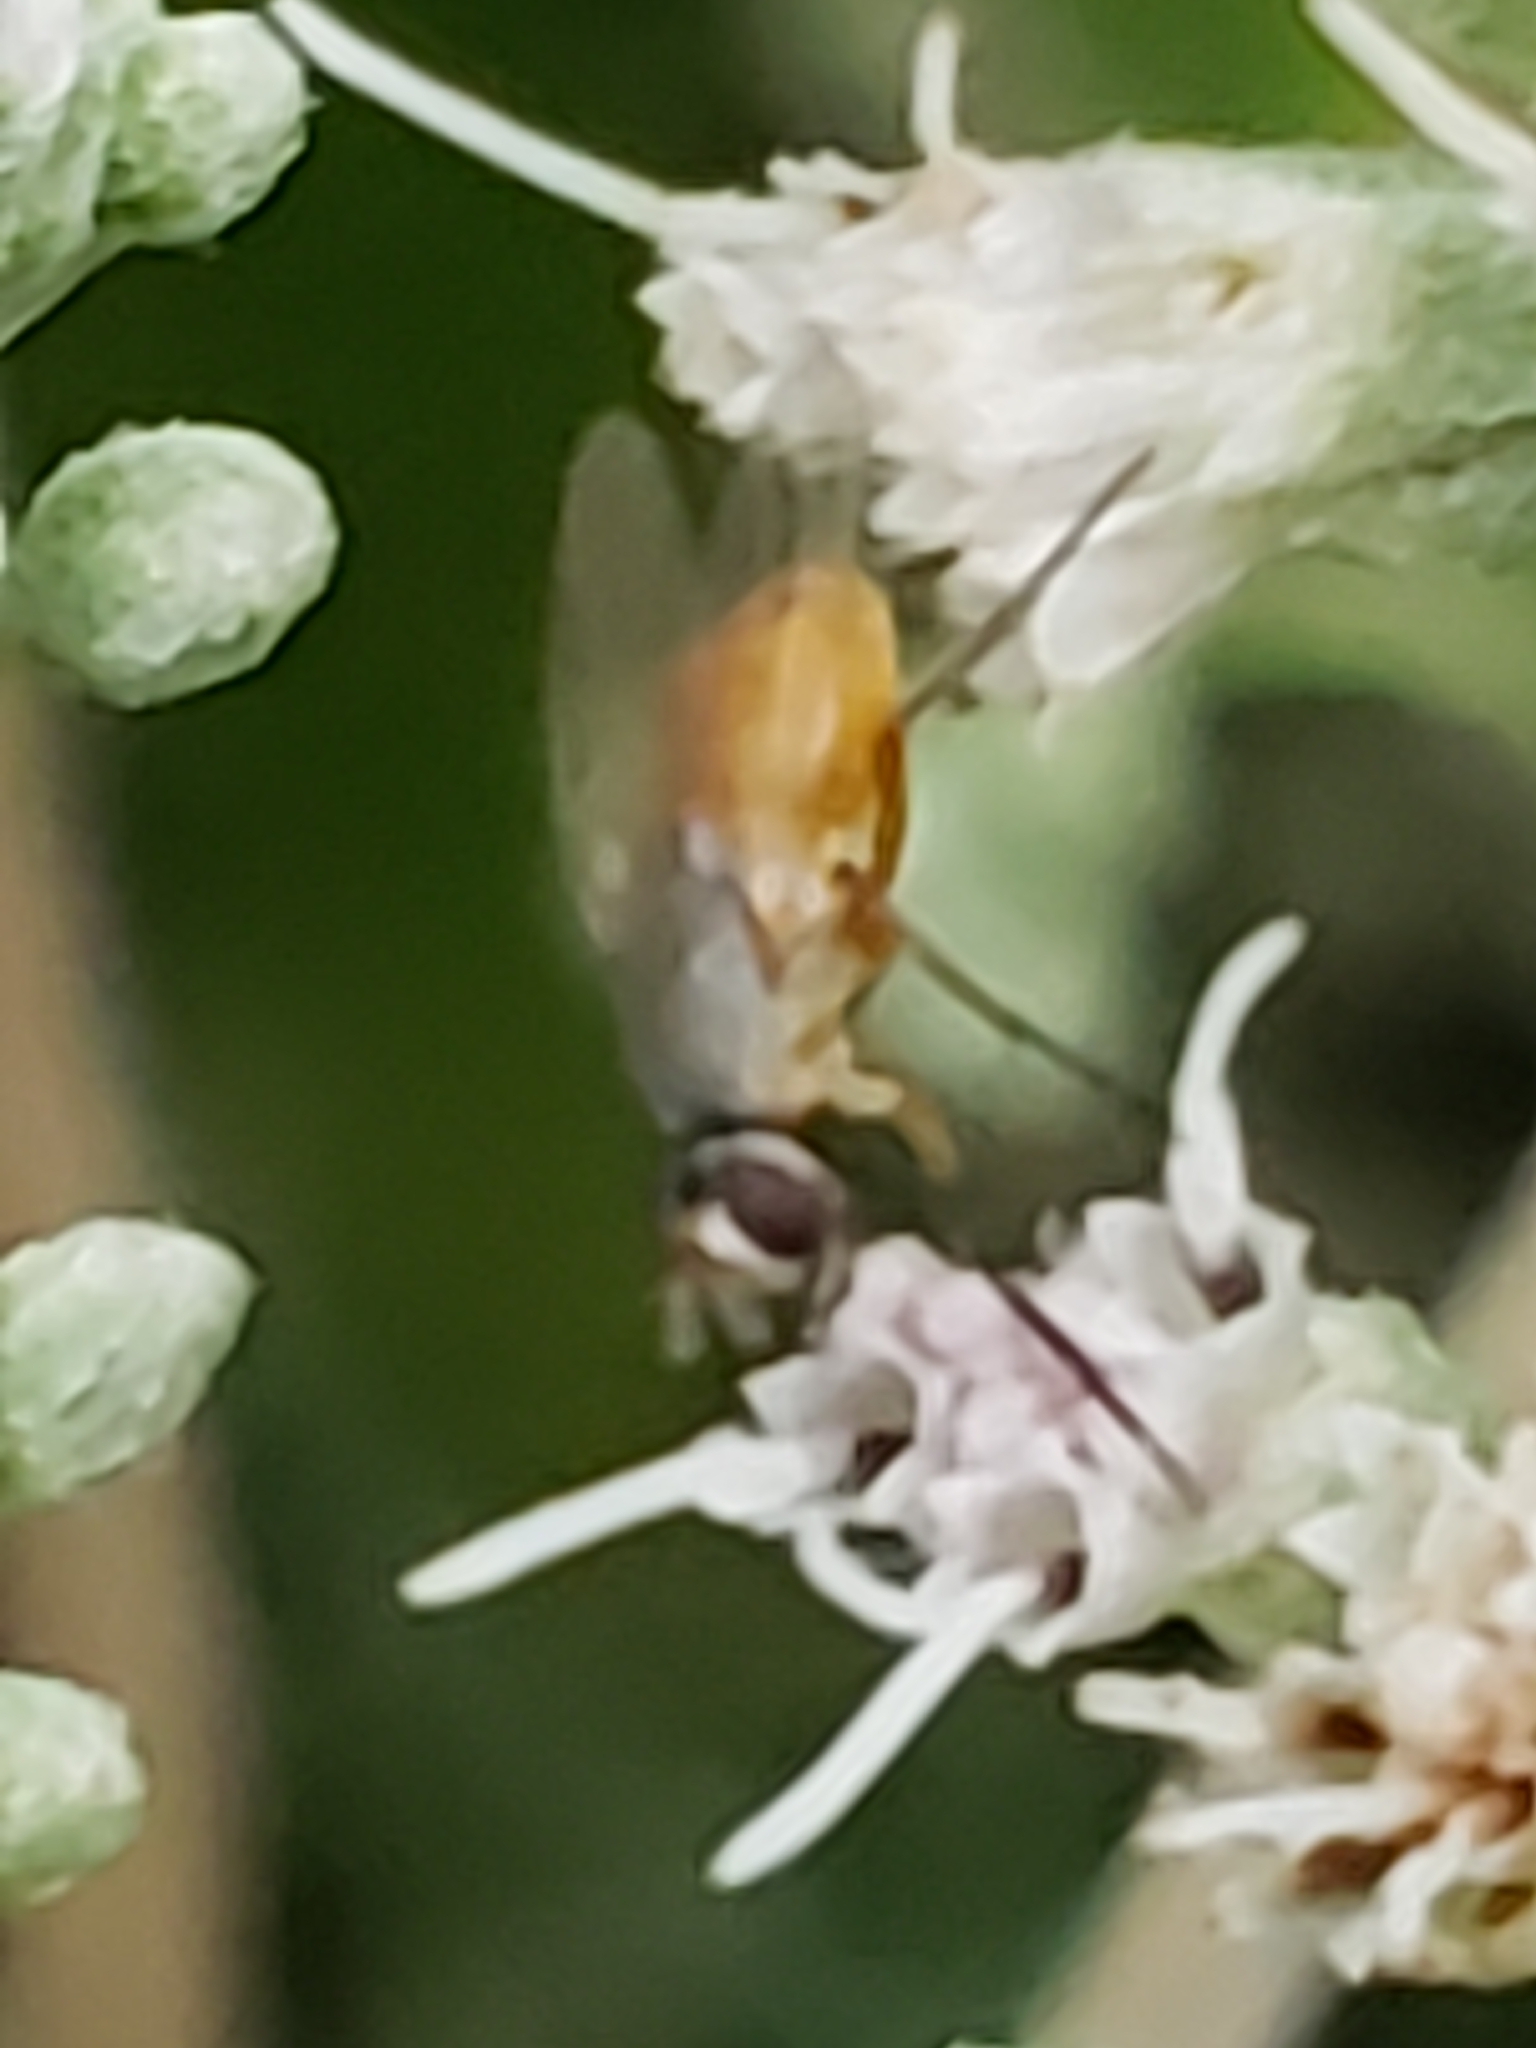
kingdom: Animalia
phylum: Arthropoda
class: Insecta
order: Diptera
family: Muscidae
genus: Atherigona
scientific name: Atherigona reversura
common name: Bermudagrass stem maggot
